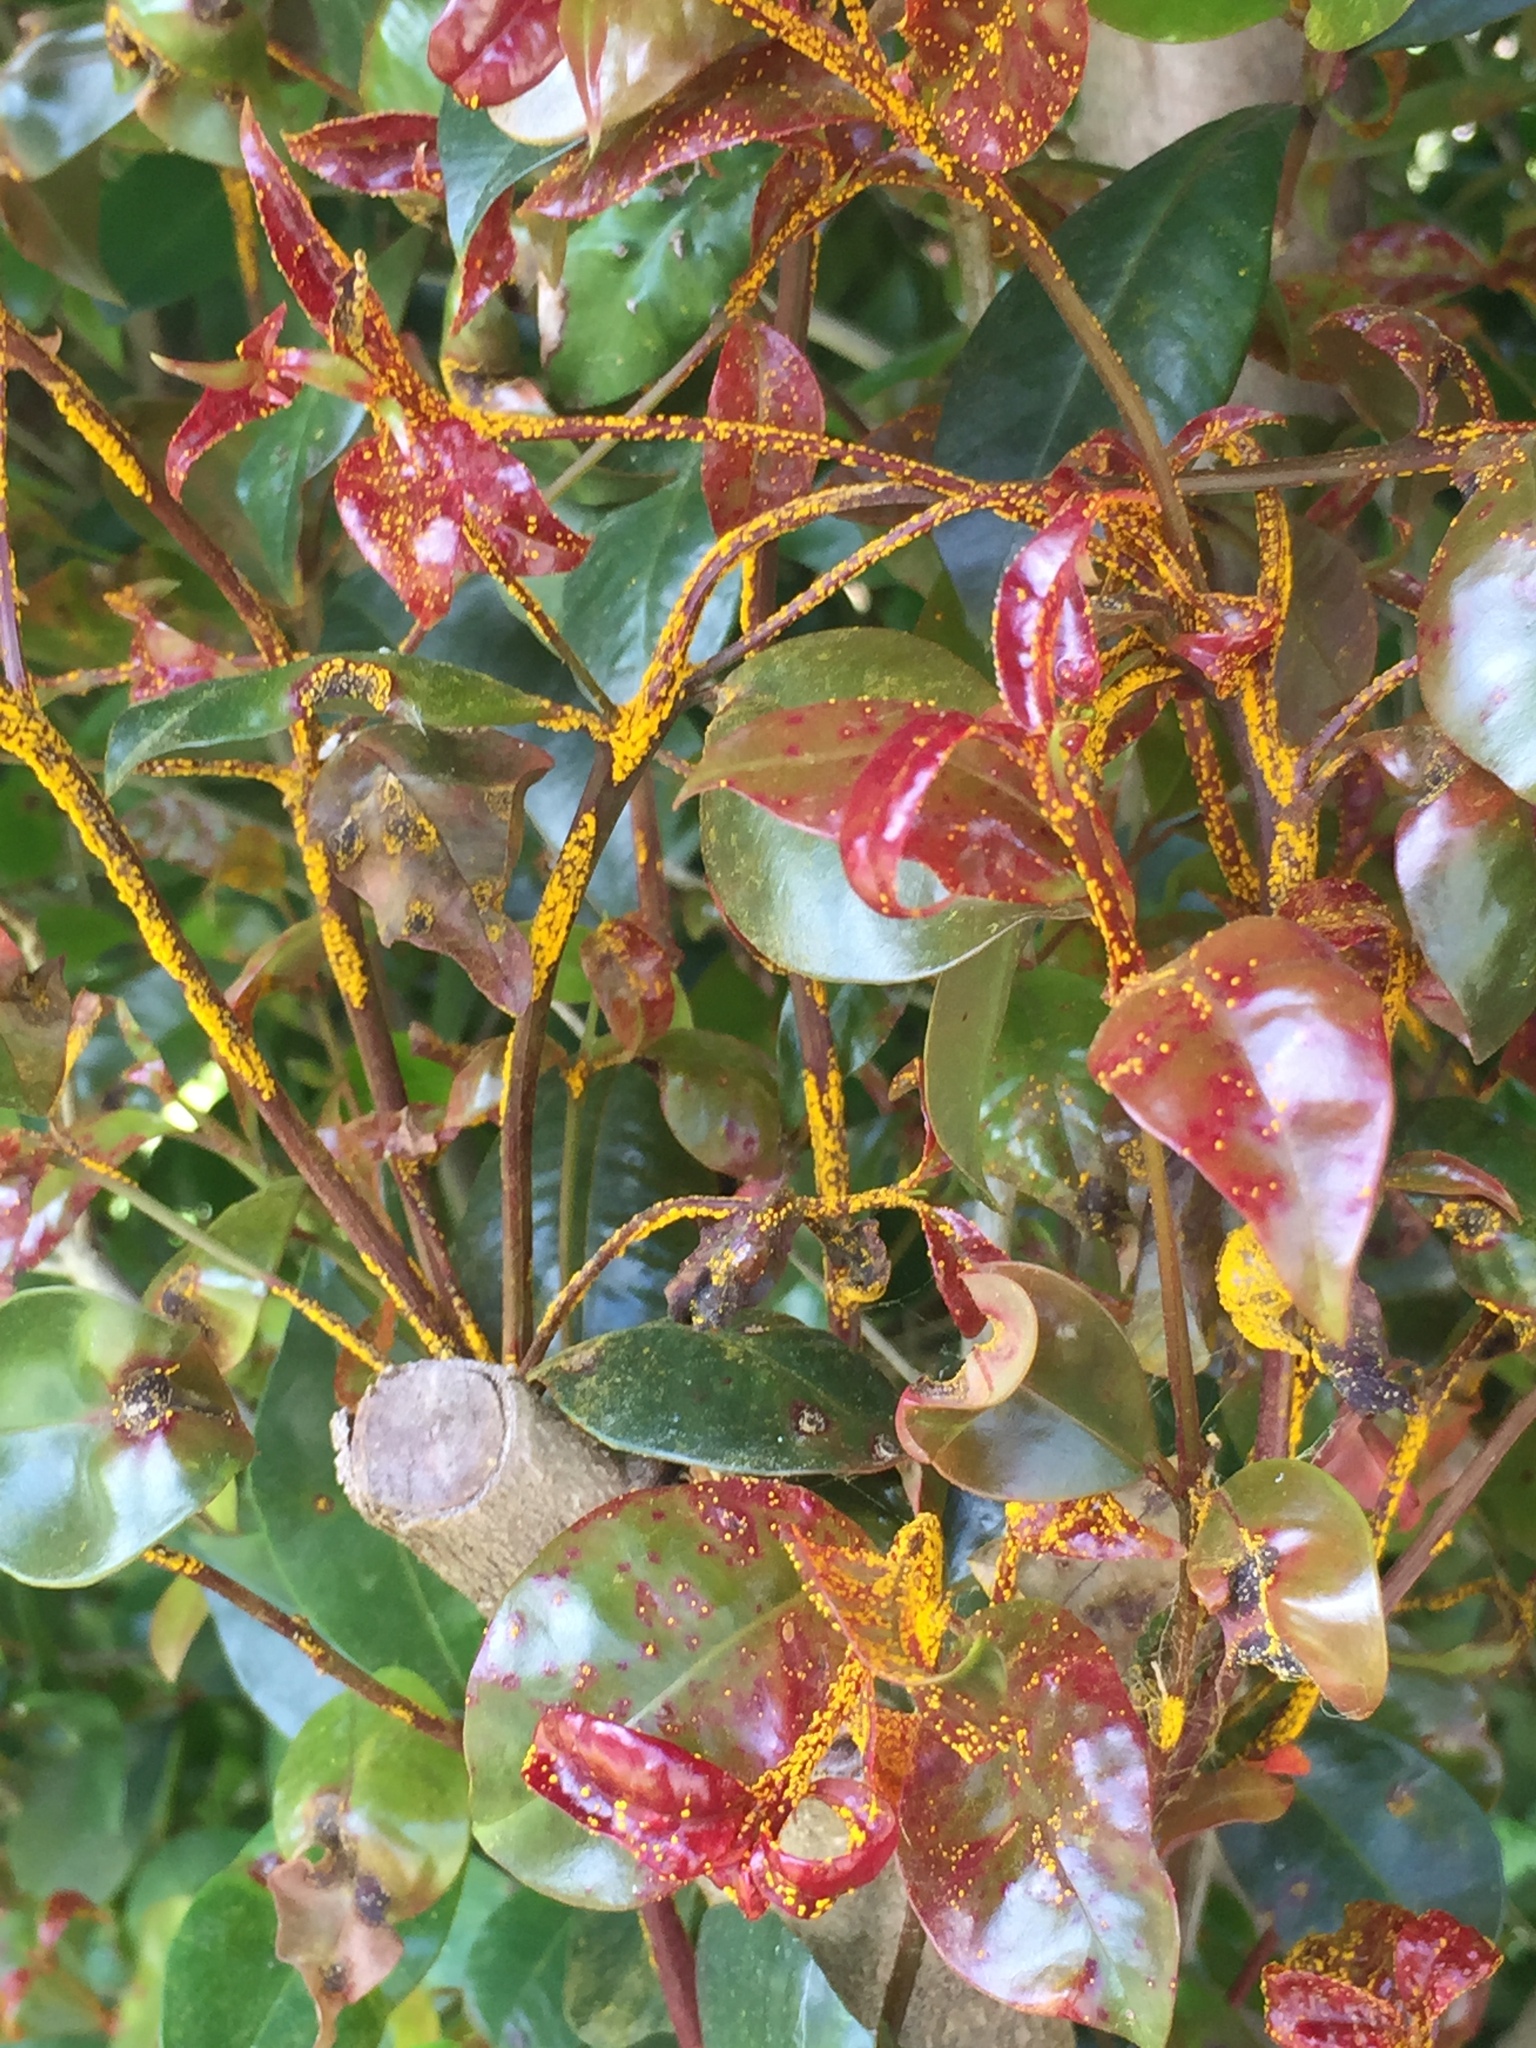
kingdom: Fungi
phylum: Basidiomycota
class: Pucciniomycetes
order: Pucciniales
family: Sphaerophragmiaceae
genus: Austropuccinia
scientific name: Austropuccinia psidii
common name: Myrtle rust
